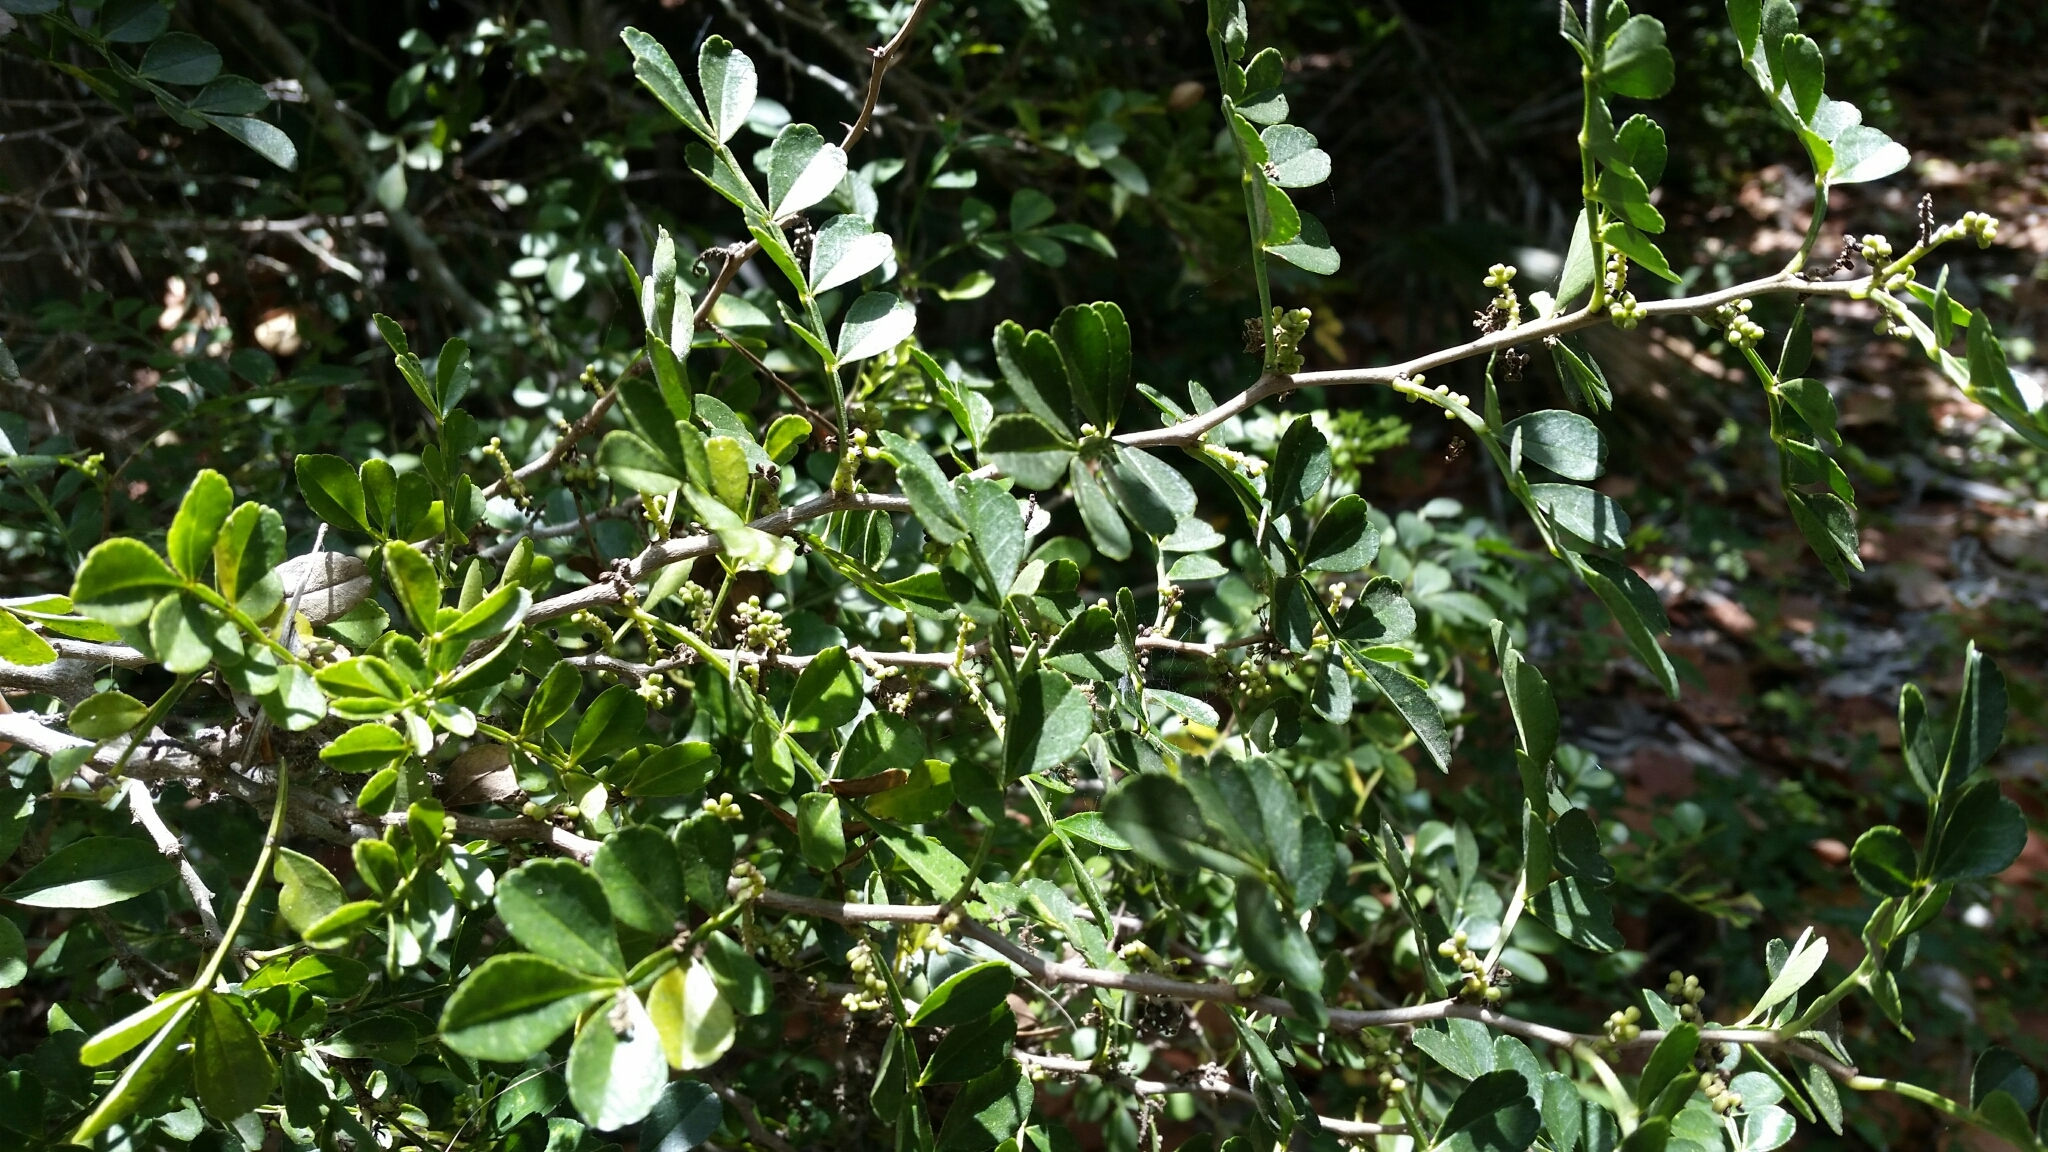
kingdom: Plantae
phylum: Tracheophyta
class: Magnoliopsida
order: Sapindales
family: Rutaceae
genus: Zanthoxylum
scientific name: Zanthoxylum fagara
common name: Lime prickly-ash
